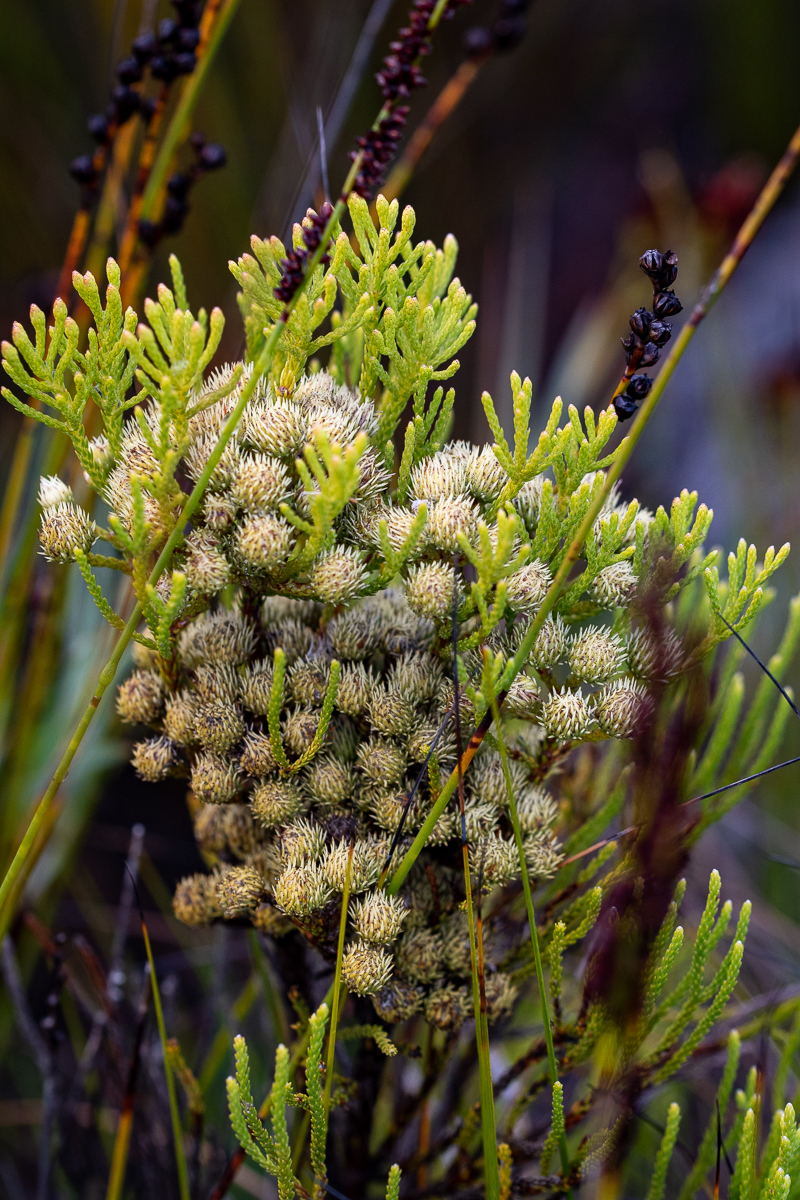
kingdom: Plantae
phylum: Tracheophyta
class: Magnoliopsida
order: Bruniales
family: Bruniaceae
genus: Brunia
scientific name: Brunia paleacea
